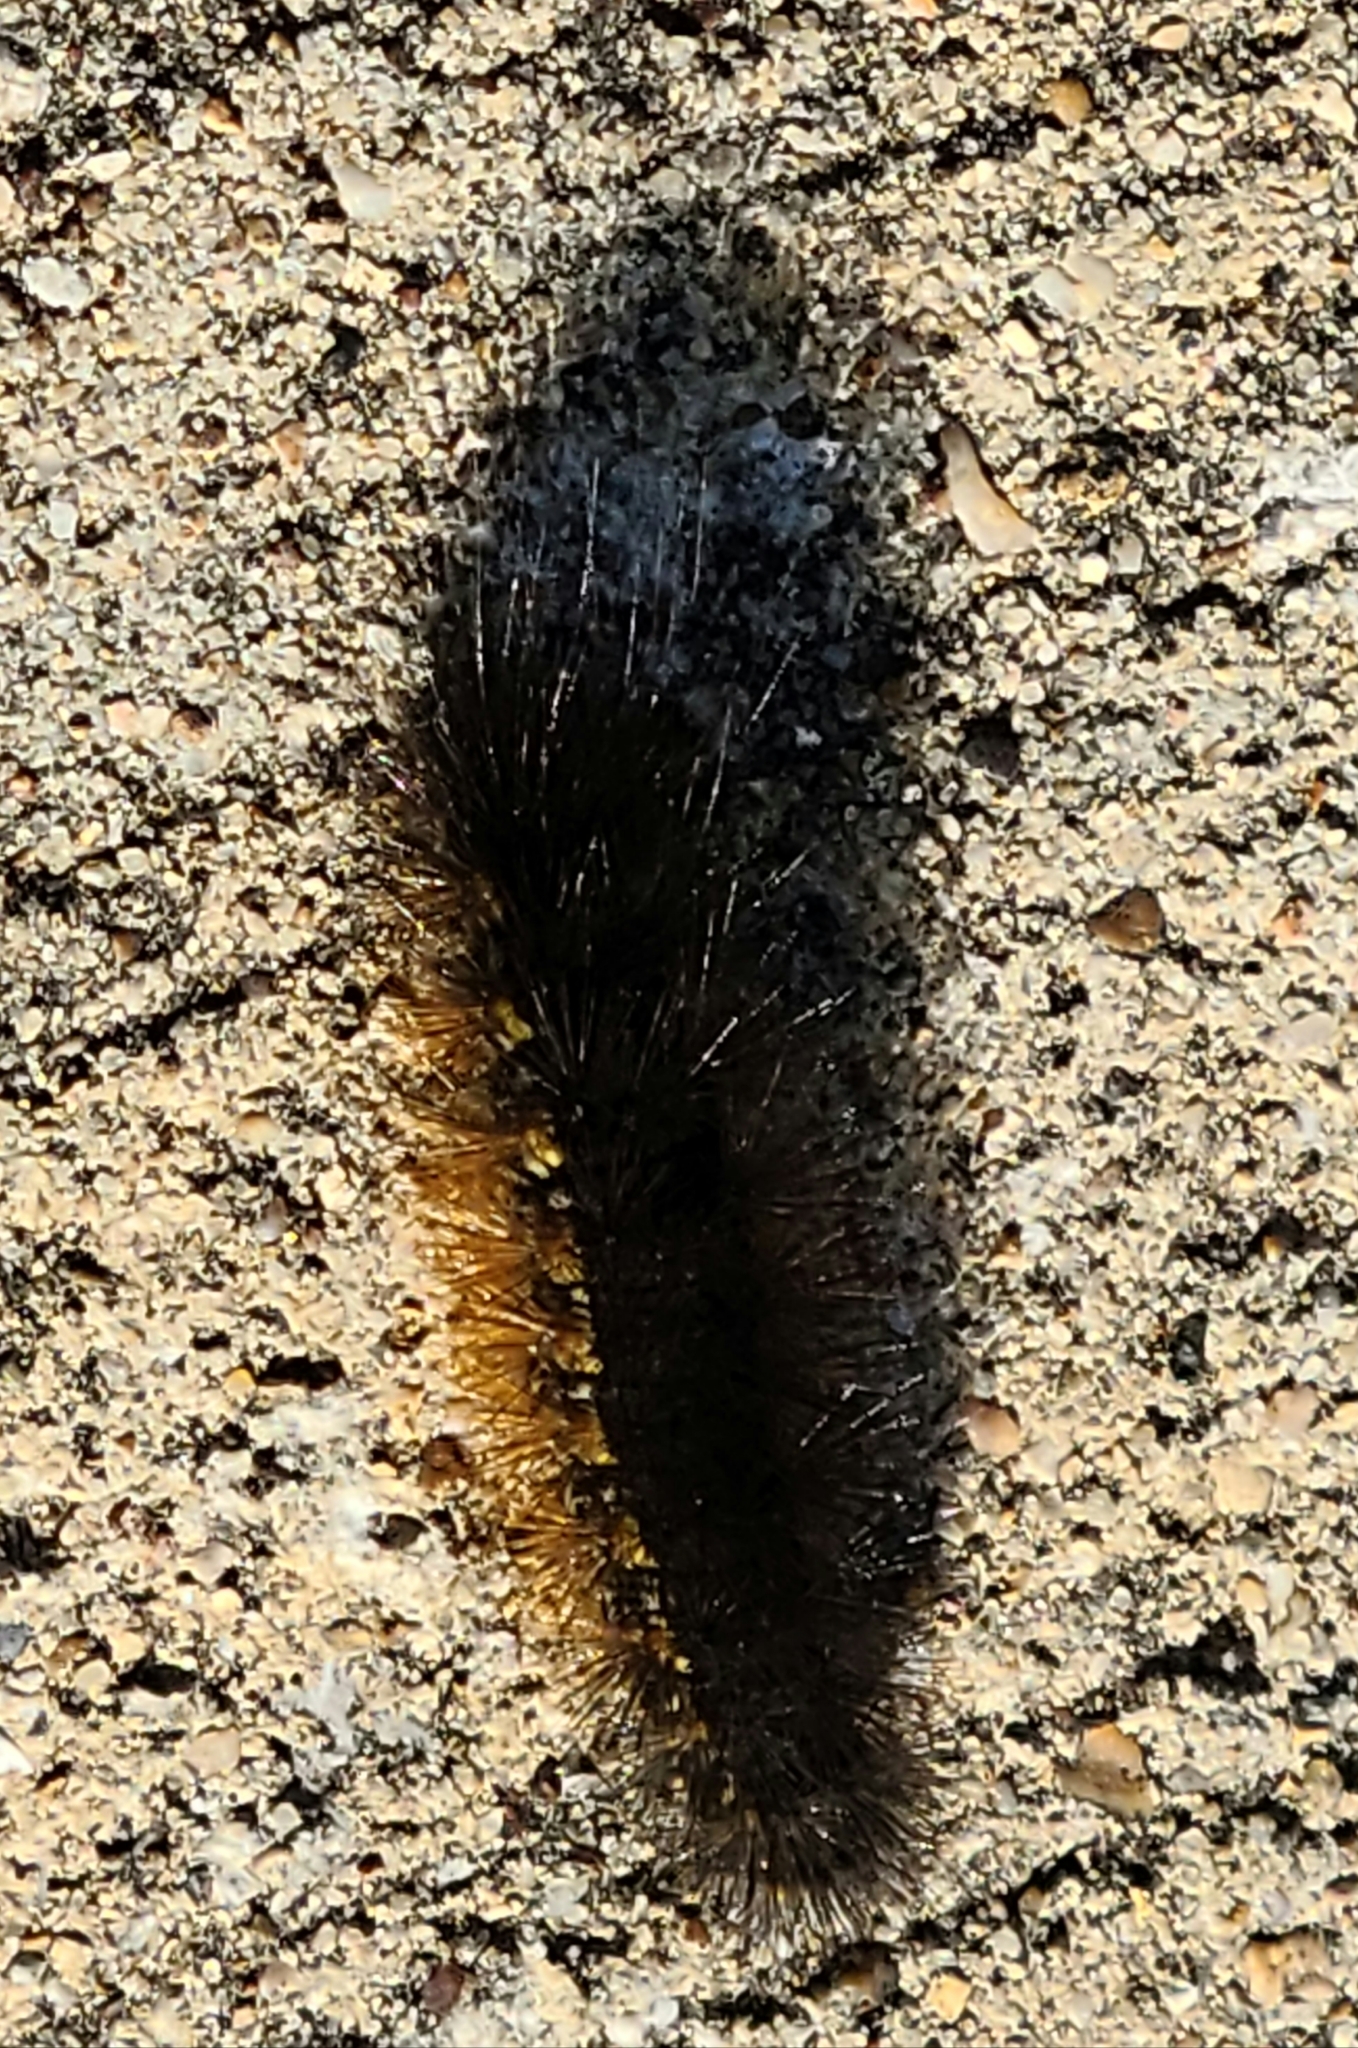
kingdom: Animalia
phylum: Arthropoda
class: Insecta
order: Lepidoptera
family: Erebidae
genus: Estigmene
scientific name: Estigmene acrea
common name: Salt marsh moth
